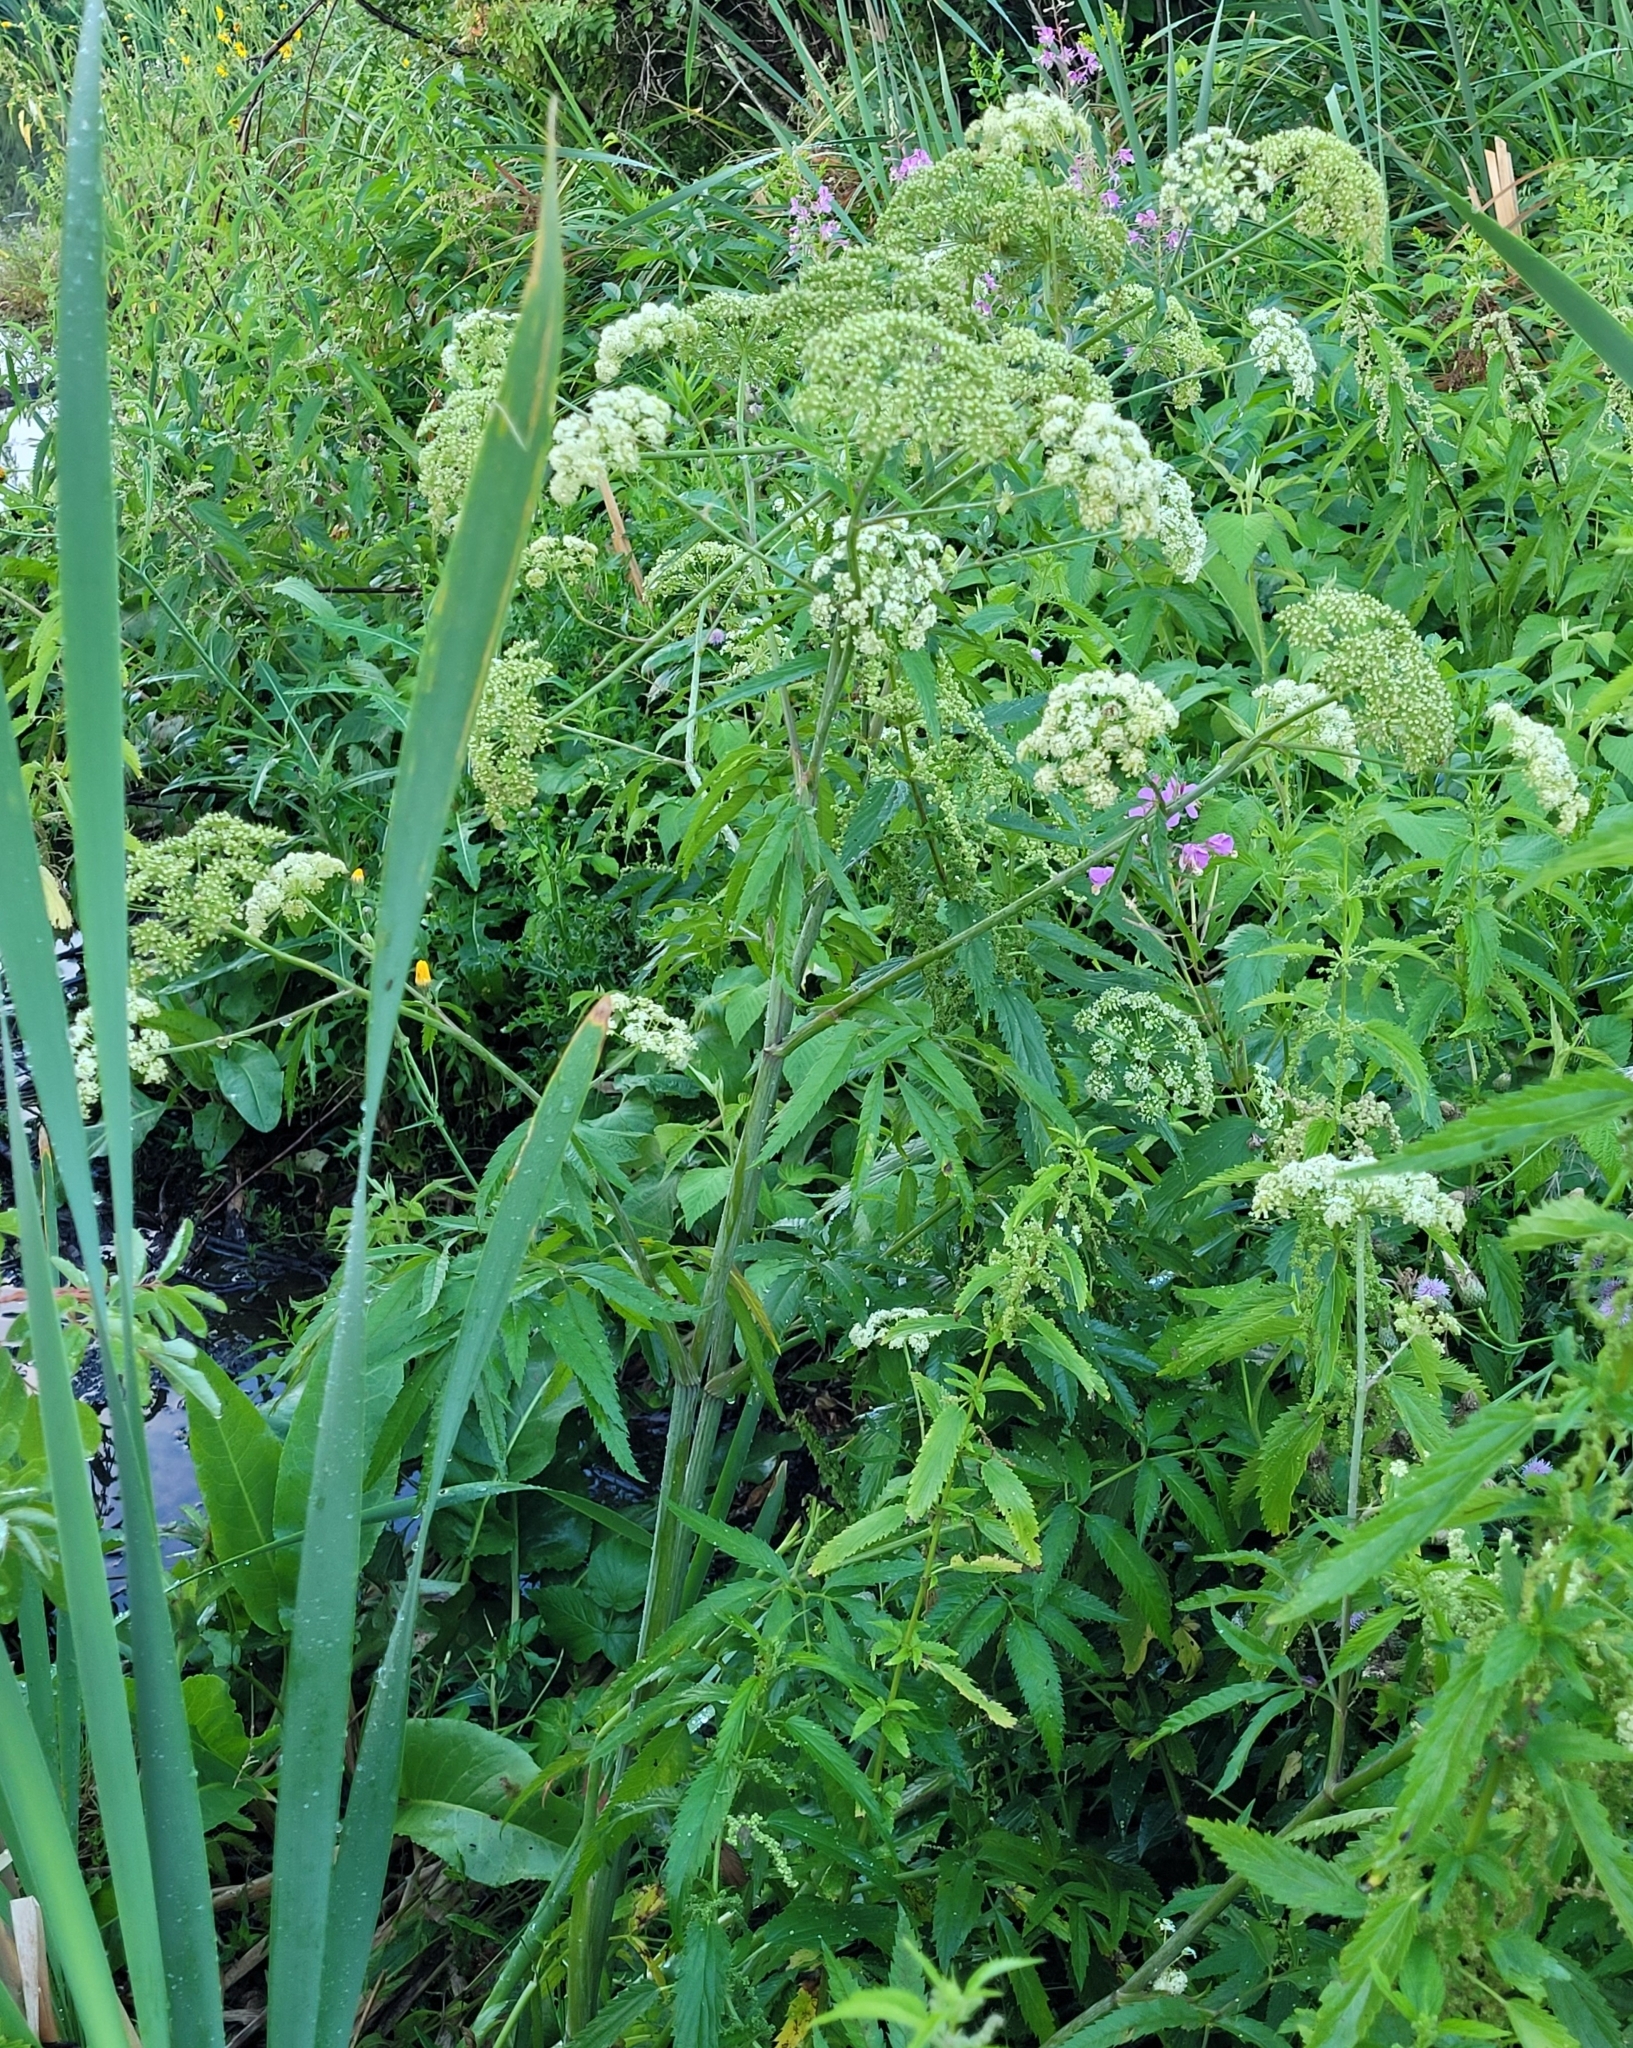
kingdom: Plantae
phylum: Tracheophyta
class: Magnoliopsida
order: Apiales
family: Apiaceae
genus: Cicuta
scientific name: Cicuta maculata
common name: Spotted cowbane
